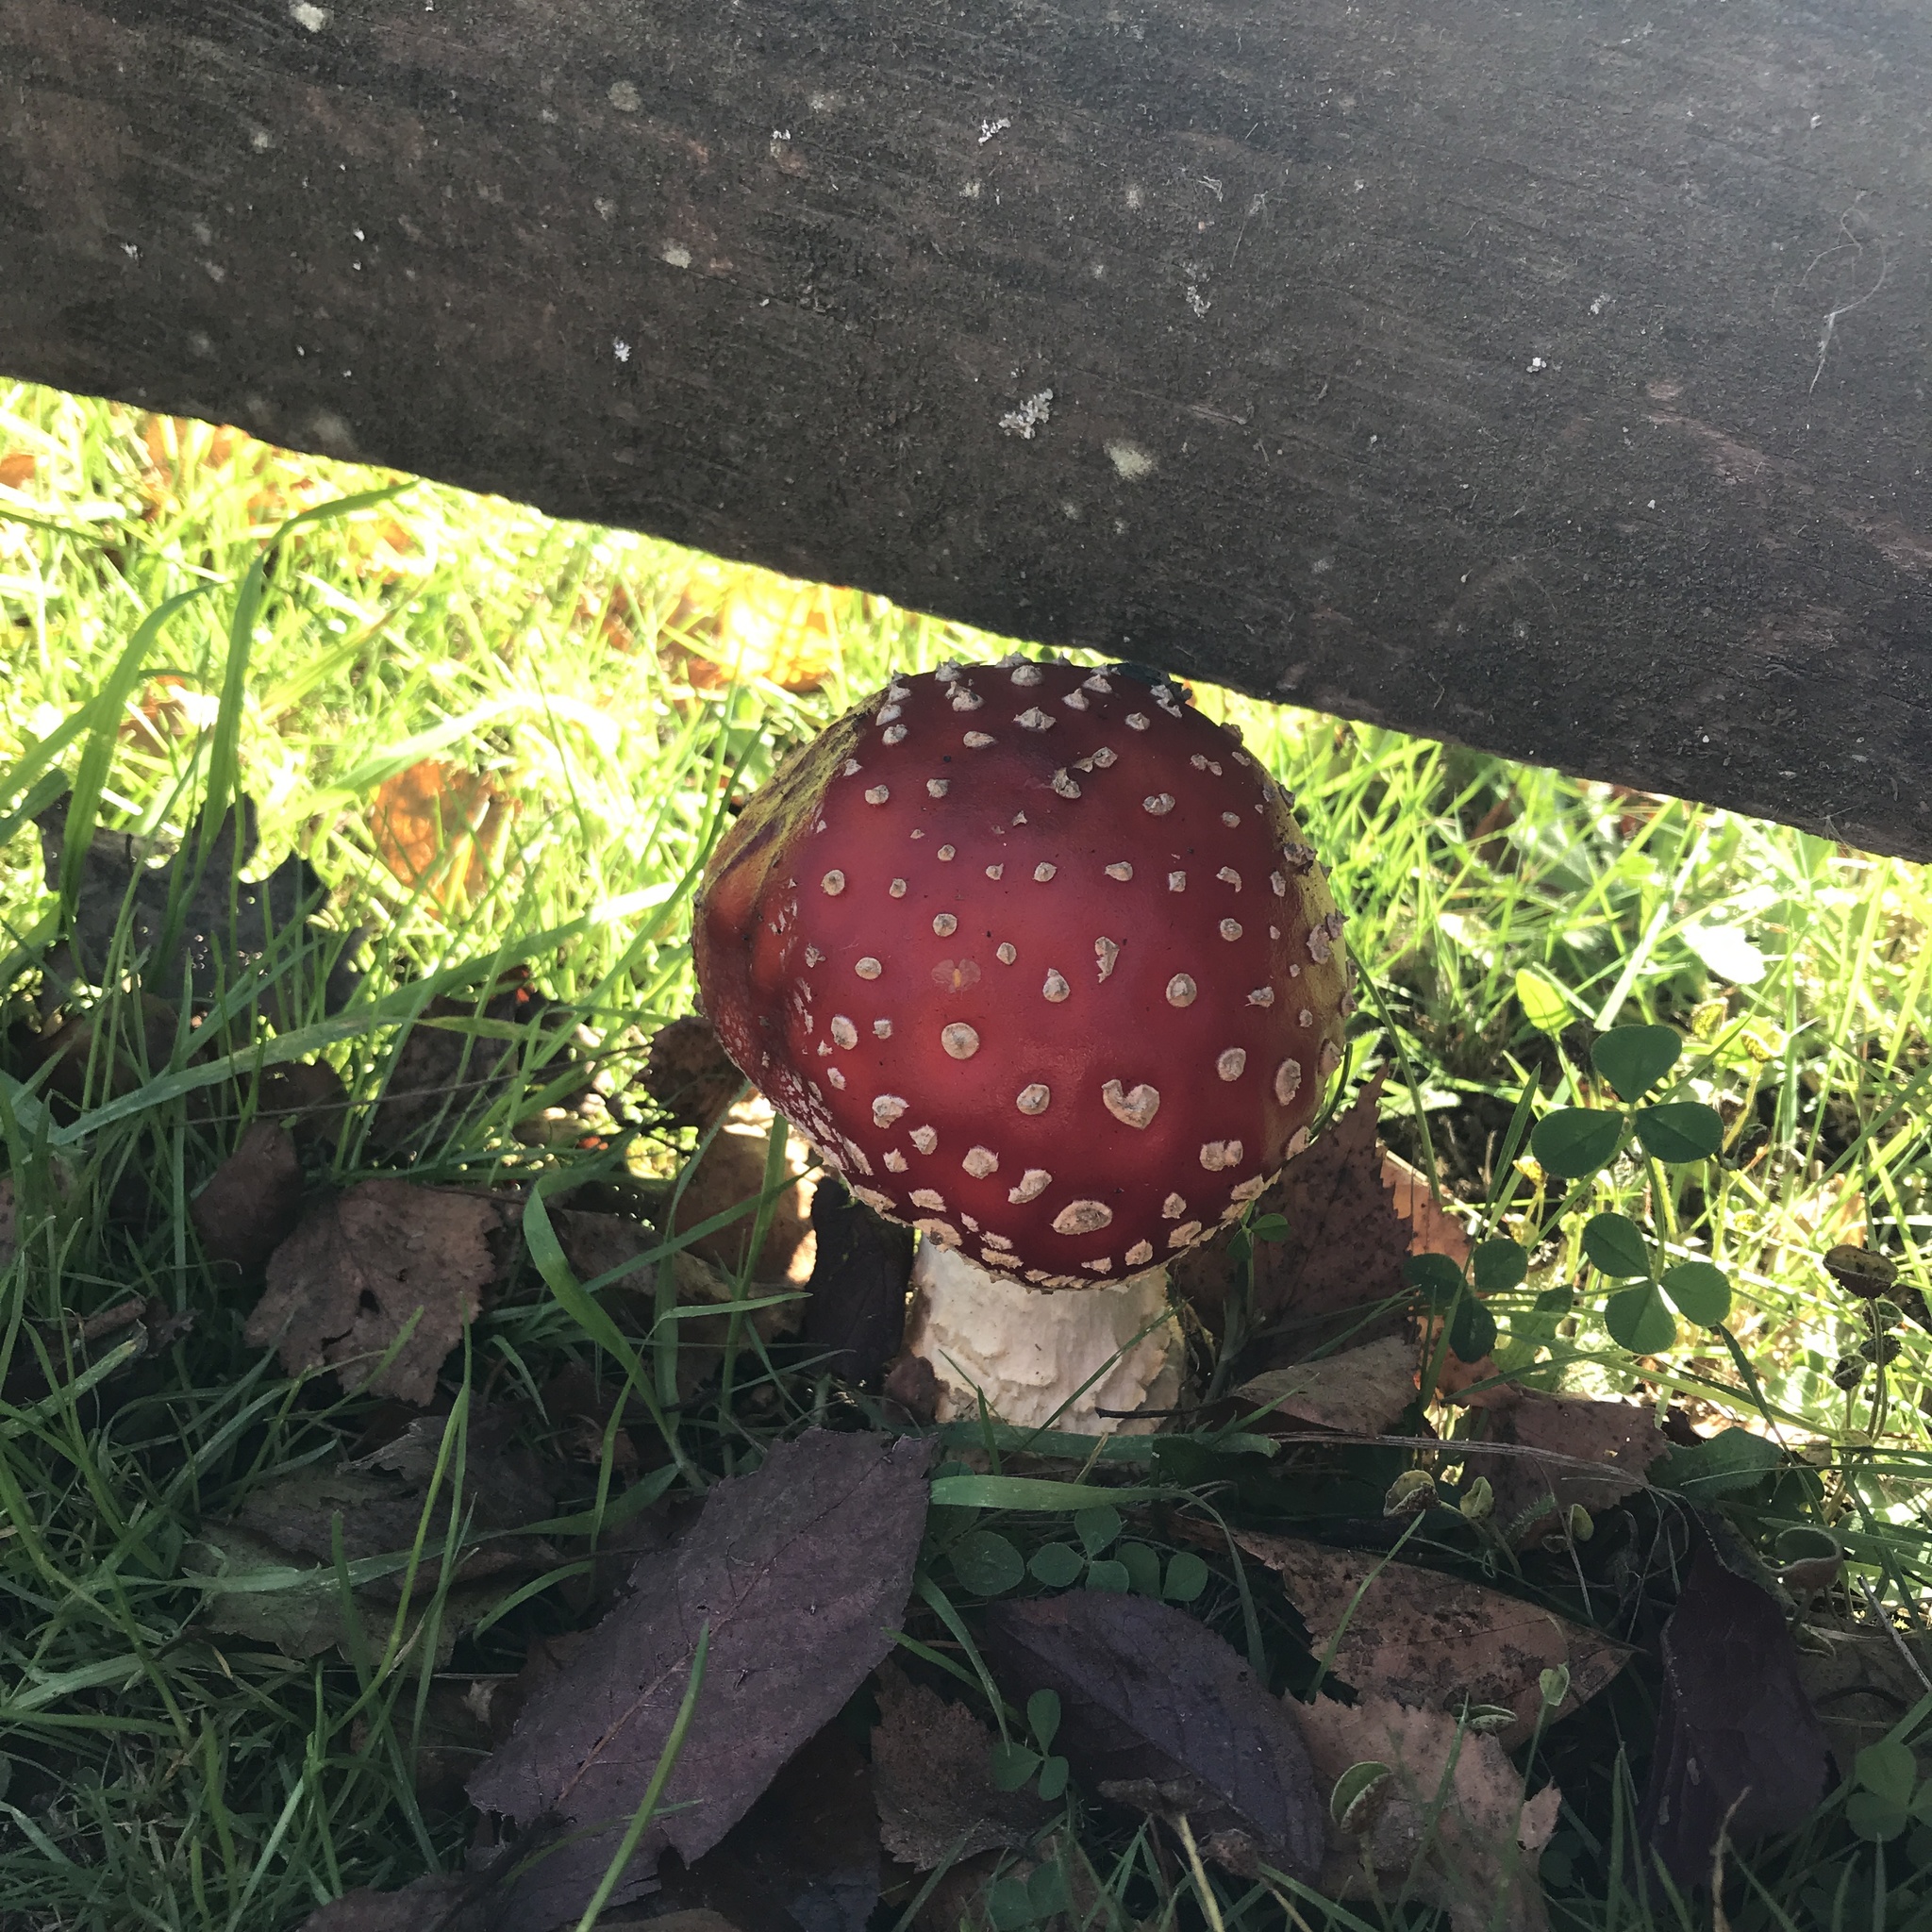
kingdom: Fungi
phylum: Basidiomycota
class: Agaricomycetes
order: Agaricales
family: Amanitaceae
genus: Amanita
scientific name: Amanita muscaria
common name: Fly agaric
